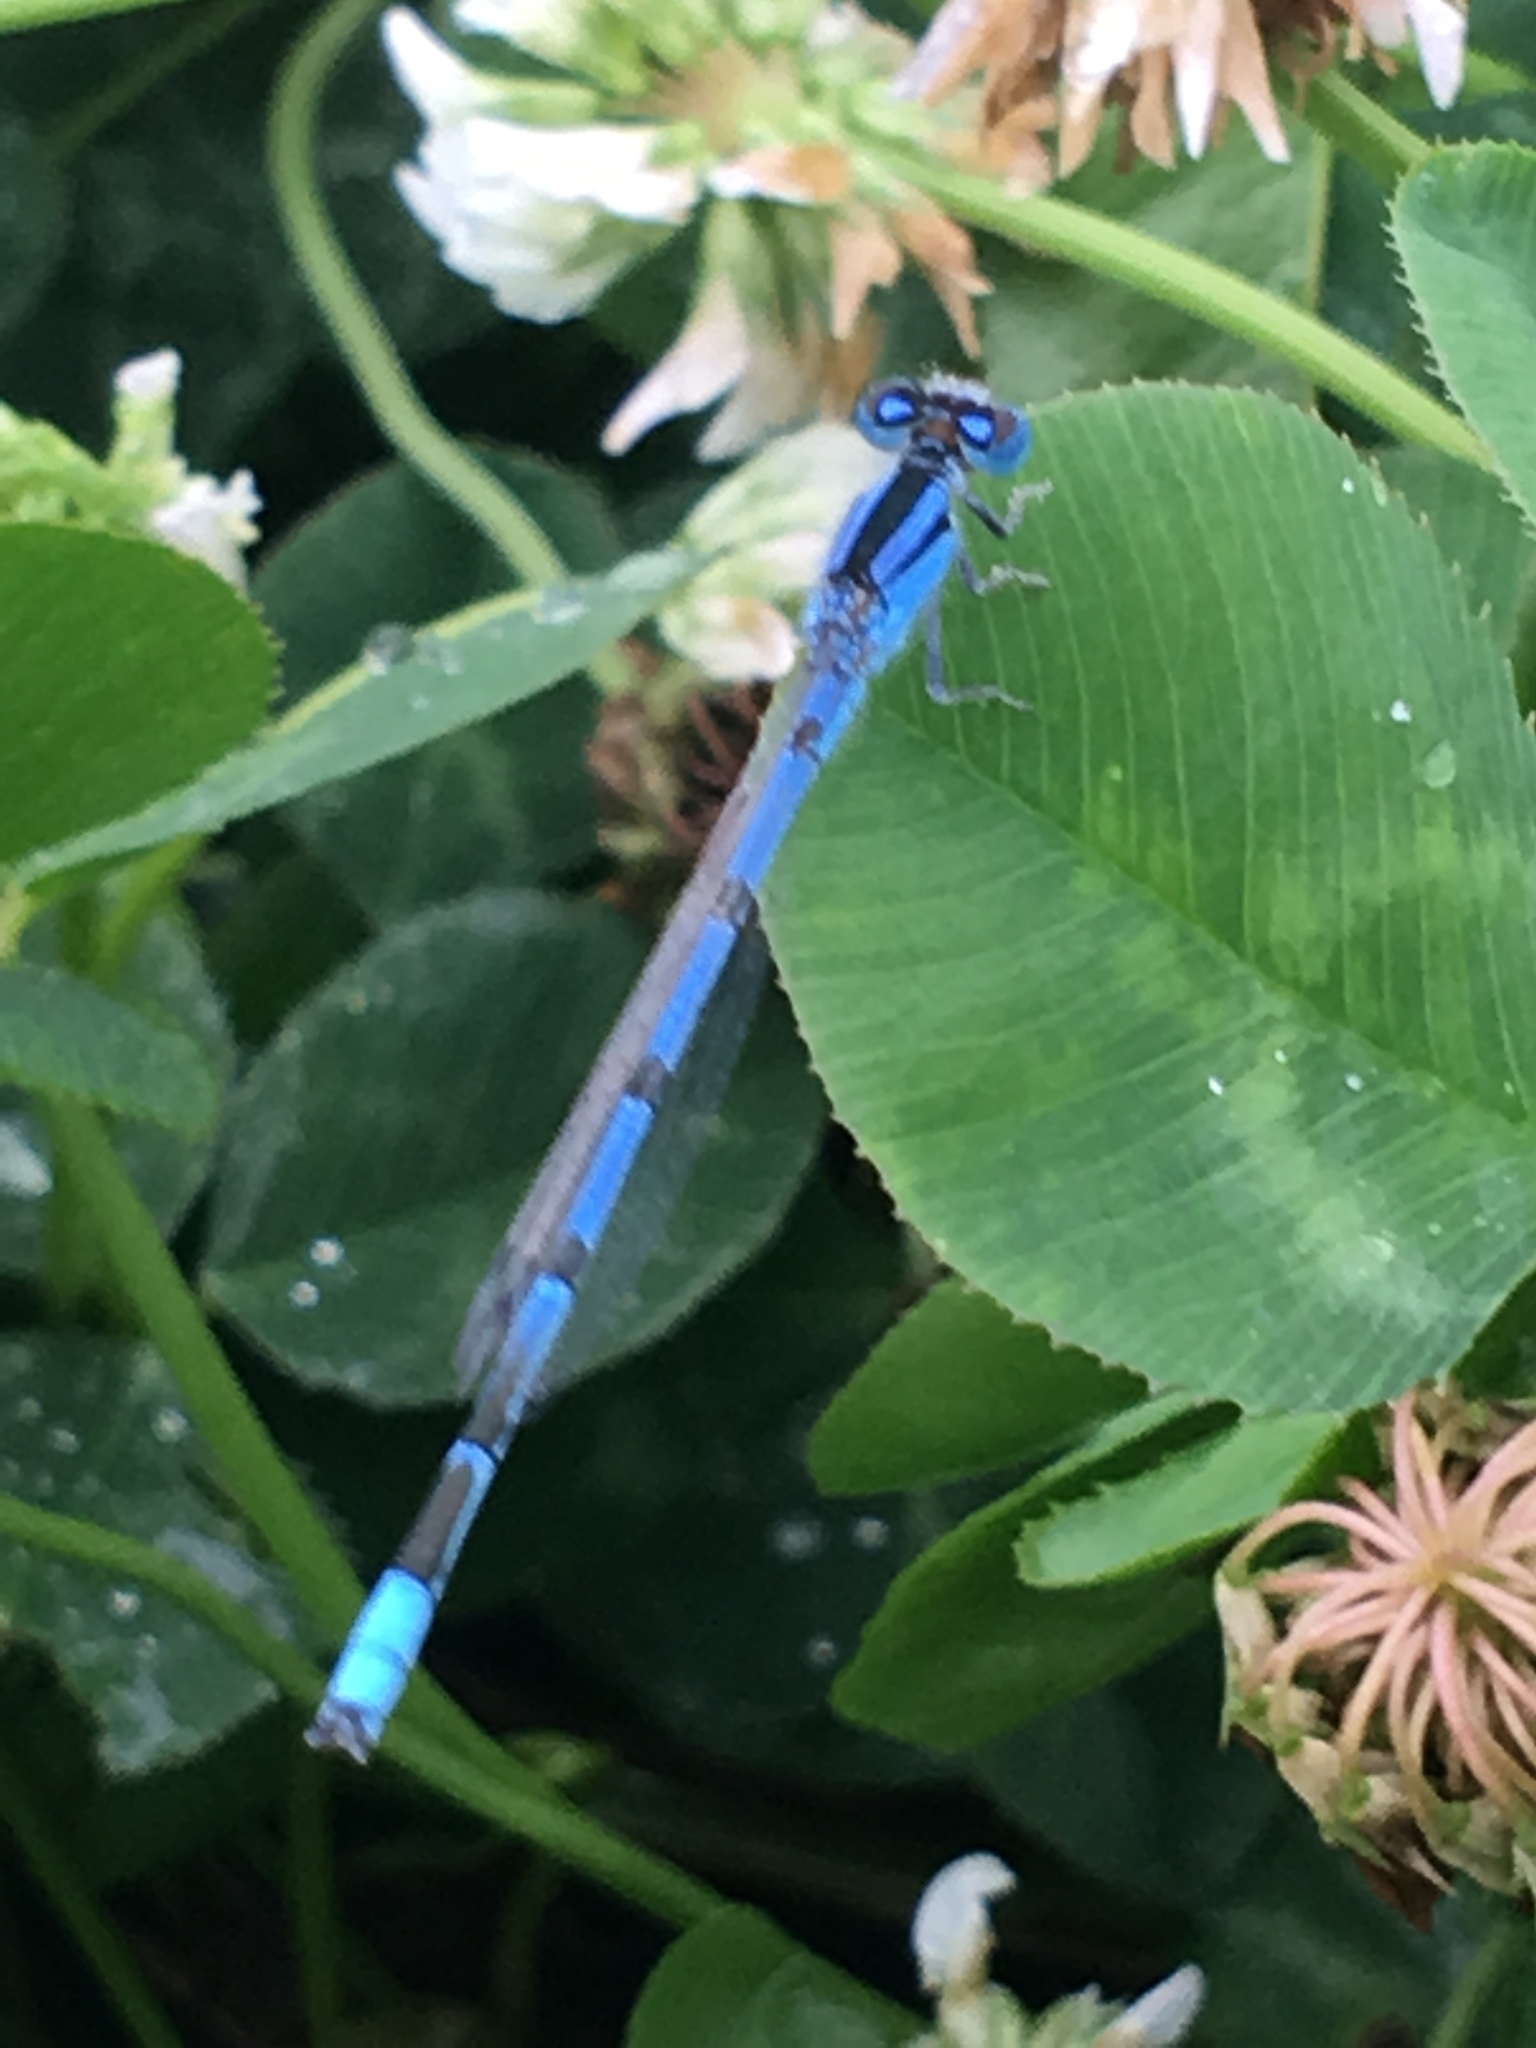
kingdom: Animalia
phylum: Arthropoda
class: Insecta
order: Odonata
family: Coenagrionidae
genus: Enallagma
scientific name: Enallagma civile
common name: Damselfly
